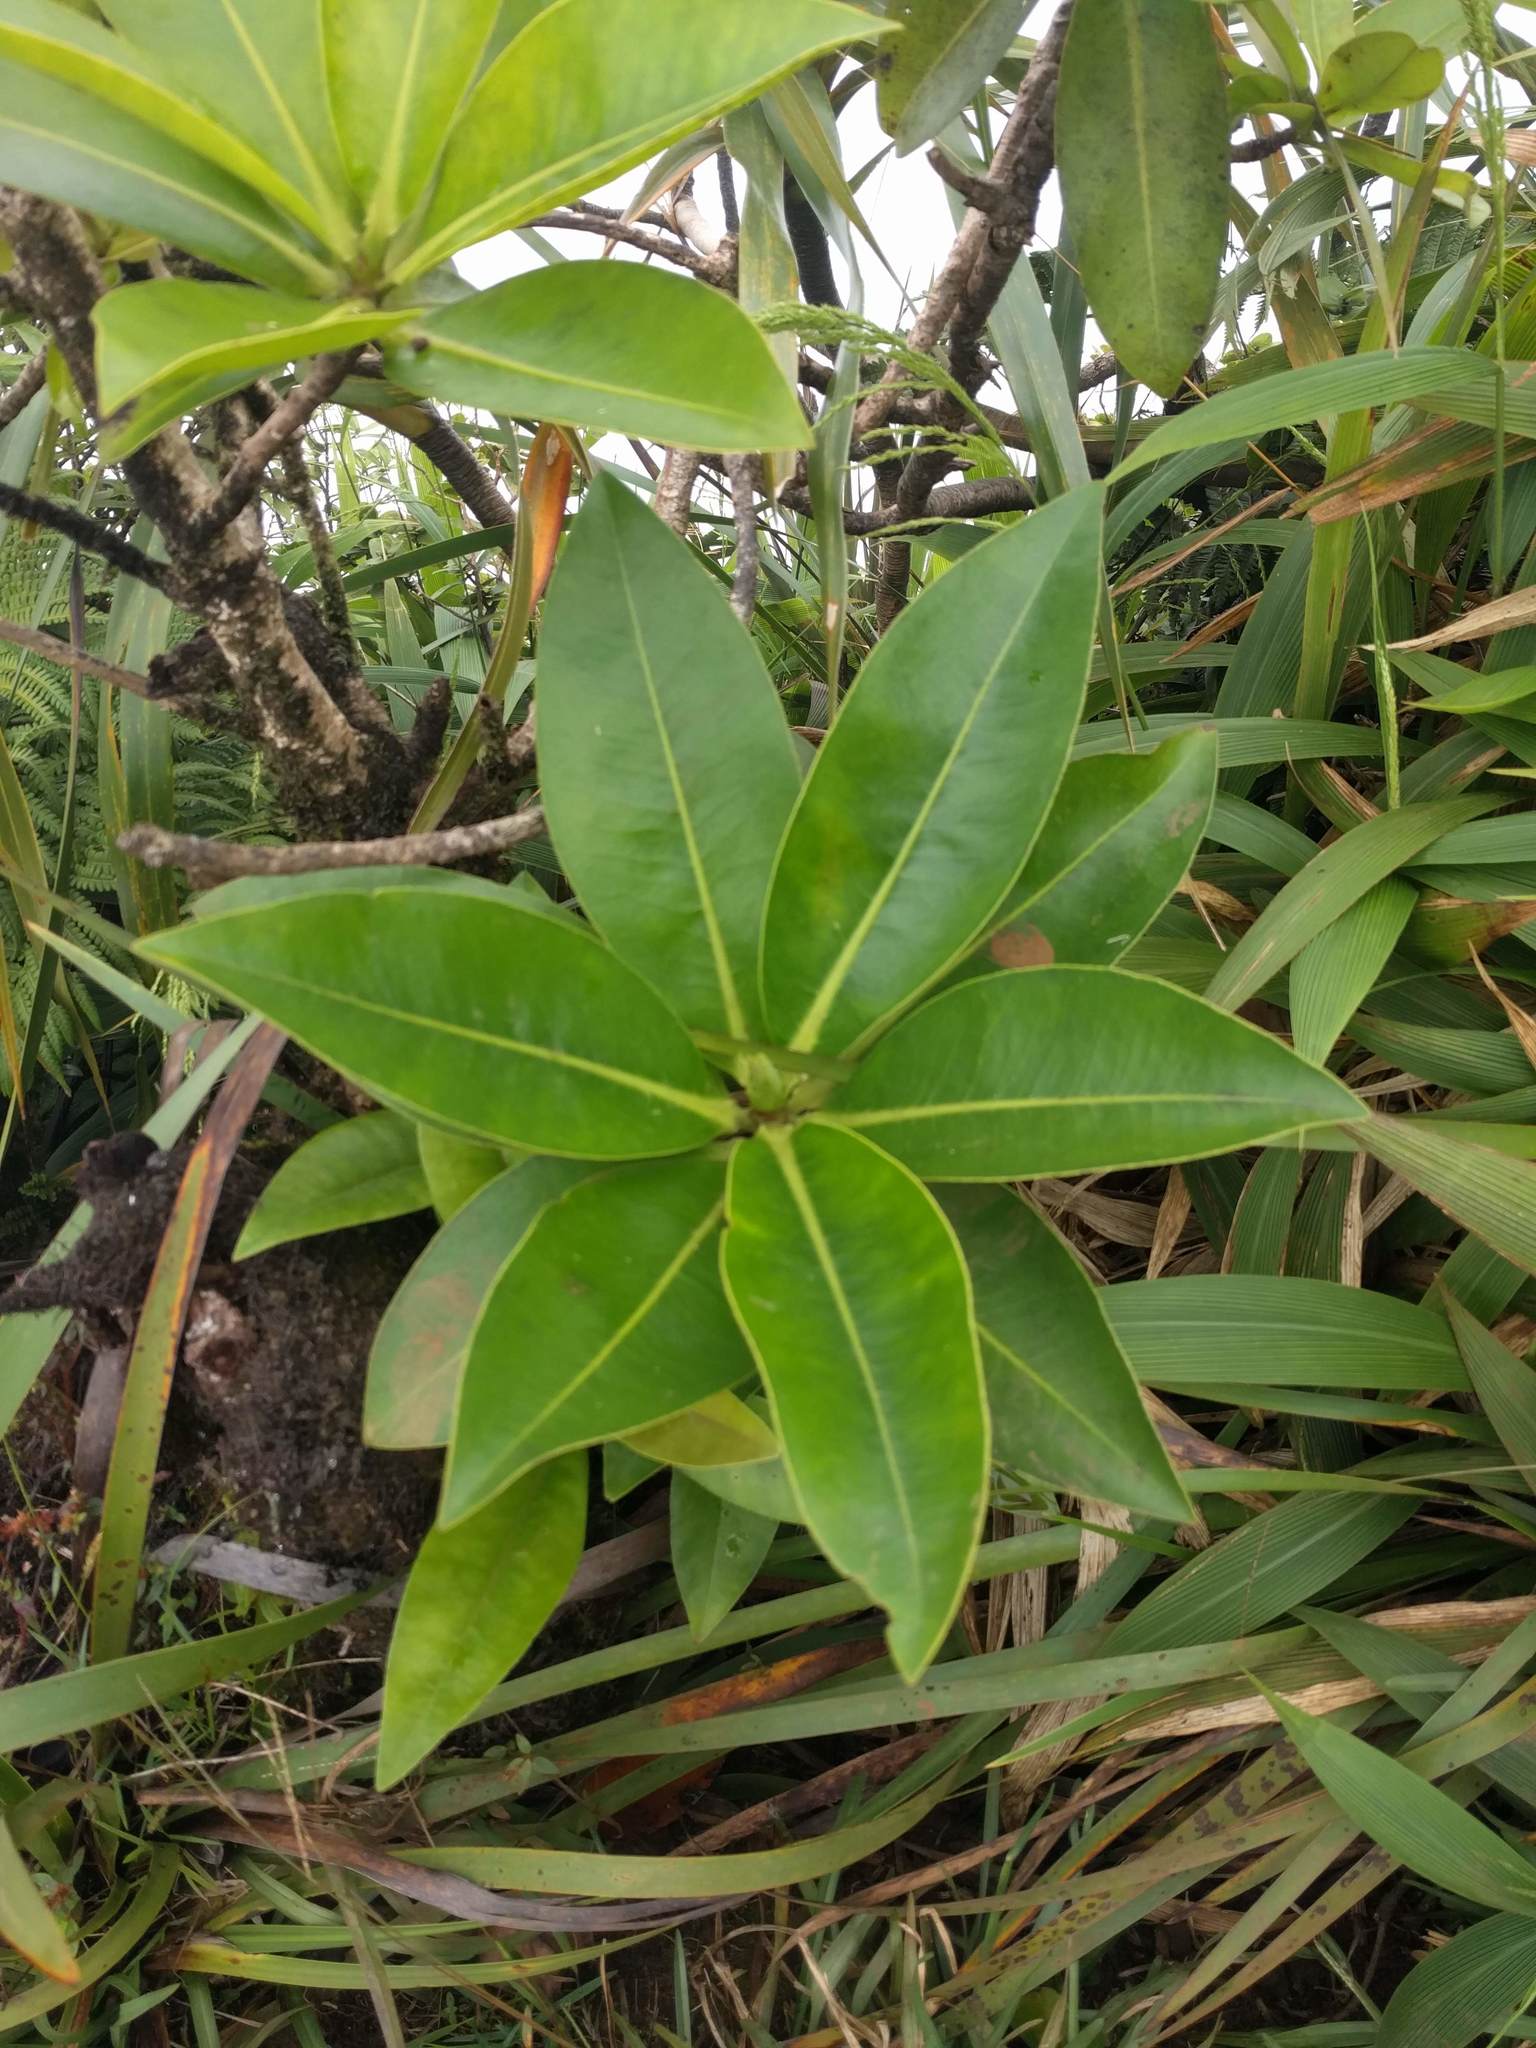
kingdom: Plantae
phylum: Tracheophyta
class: Magnoliopsida
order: Ericales
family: Primulaceae
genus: Myrsine
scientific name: Myrsine degeneri
